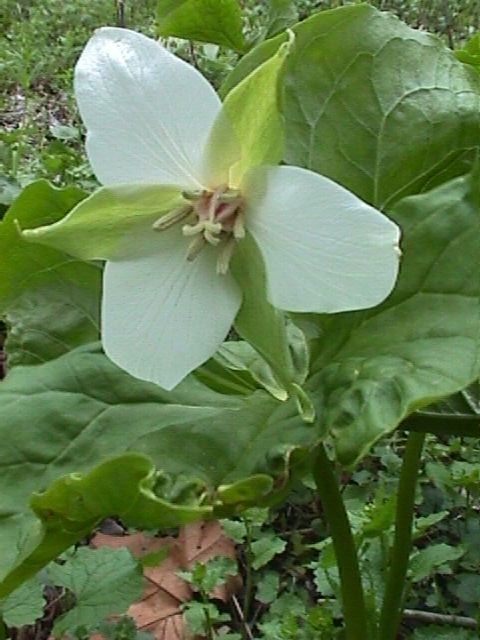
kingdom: Plantae
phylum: Tracheophyta
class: Liliopsida
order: Liliales
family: Melanthiaceae
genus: Trillium
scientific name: Trillium erectum
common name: Purple trillium
